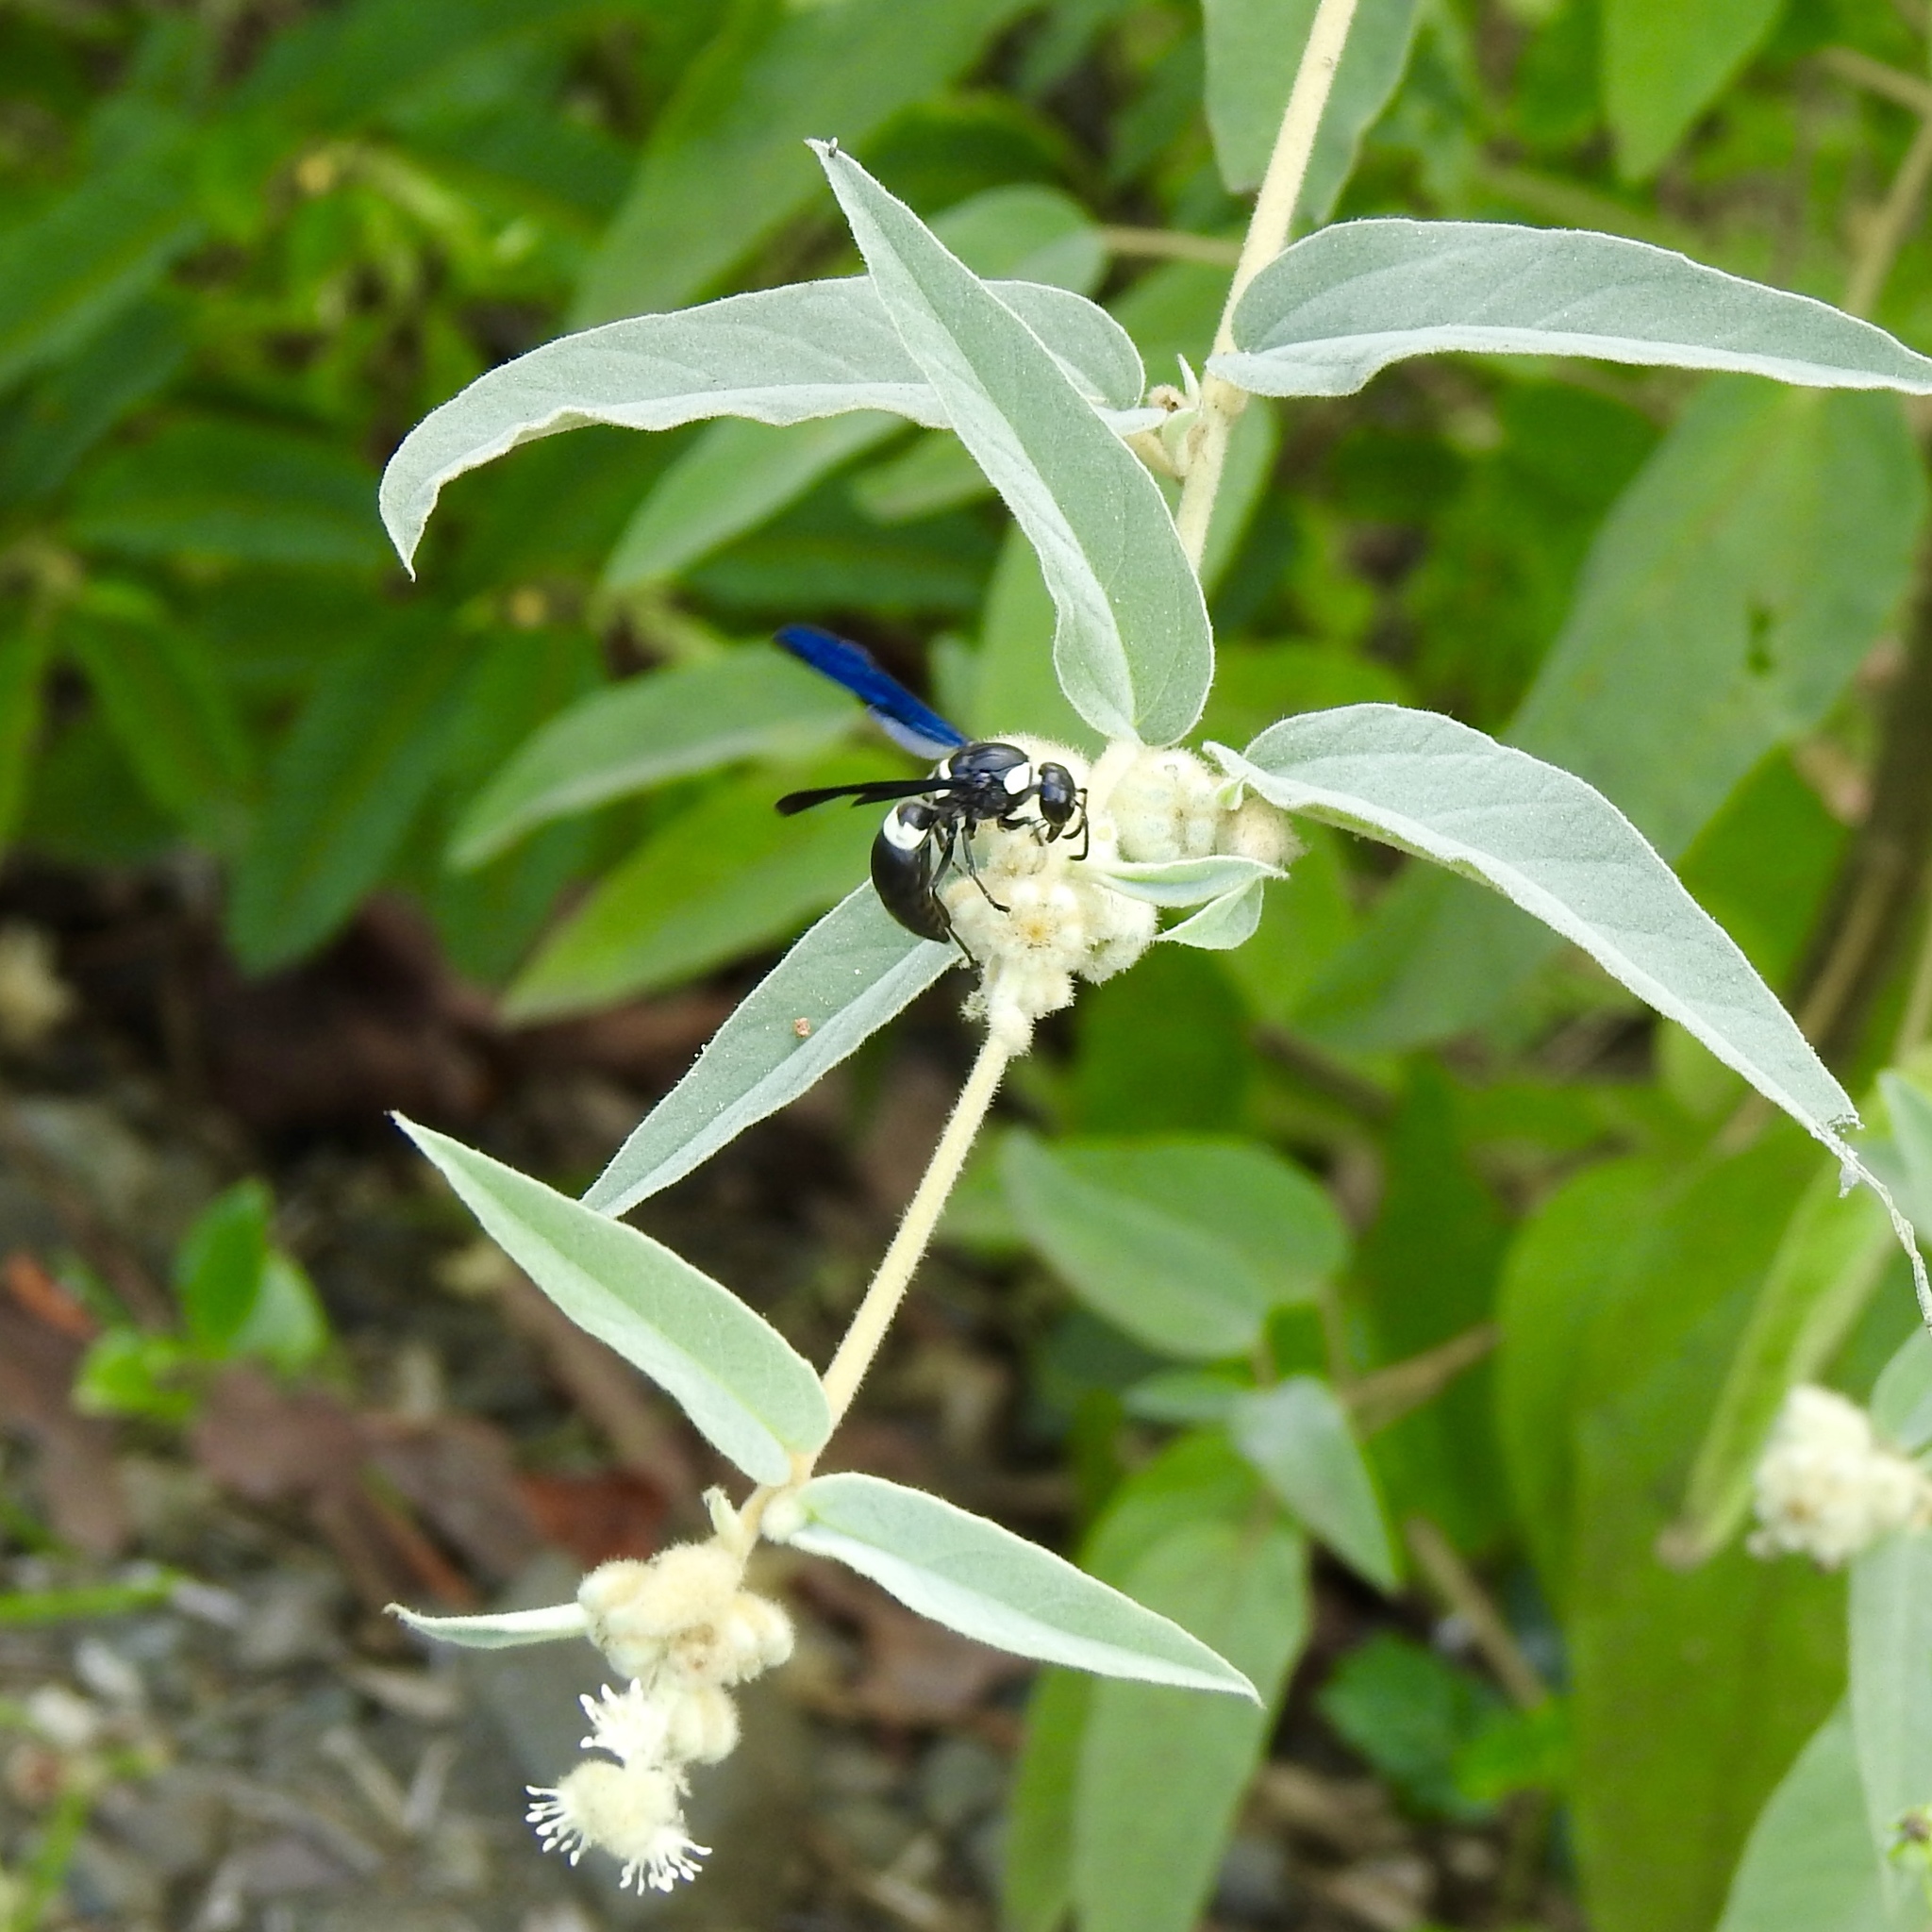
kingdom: Animalia
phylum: Arthropoda
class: Insecta
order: Hymenoptera
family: Eumenidae
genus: Monobia
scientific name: Monobia quadridens
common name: Four-toothed mason wasp
